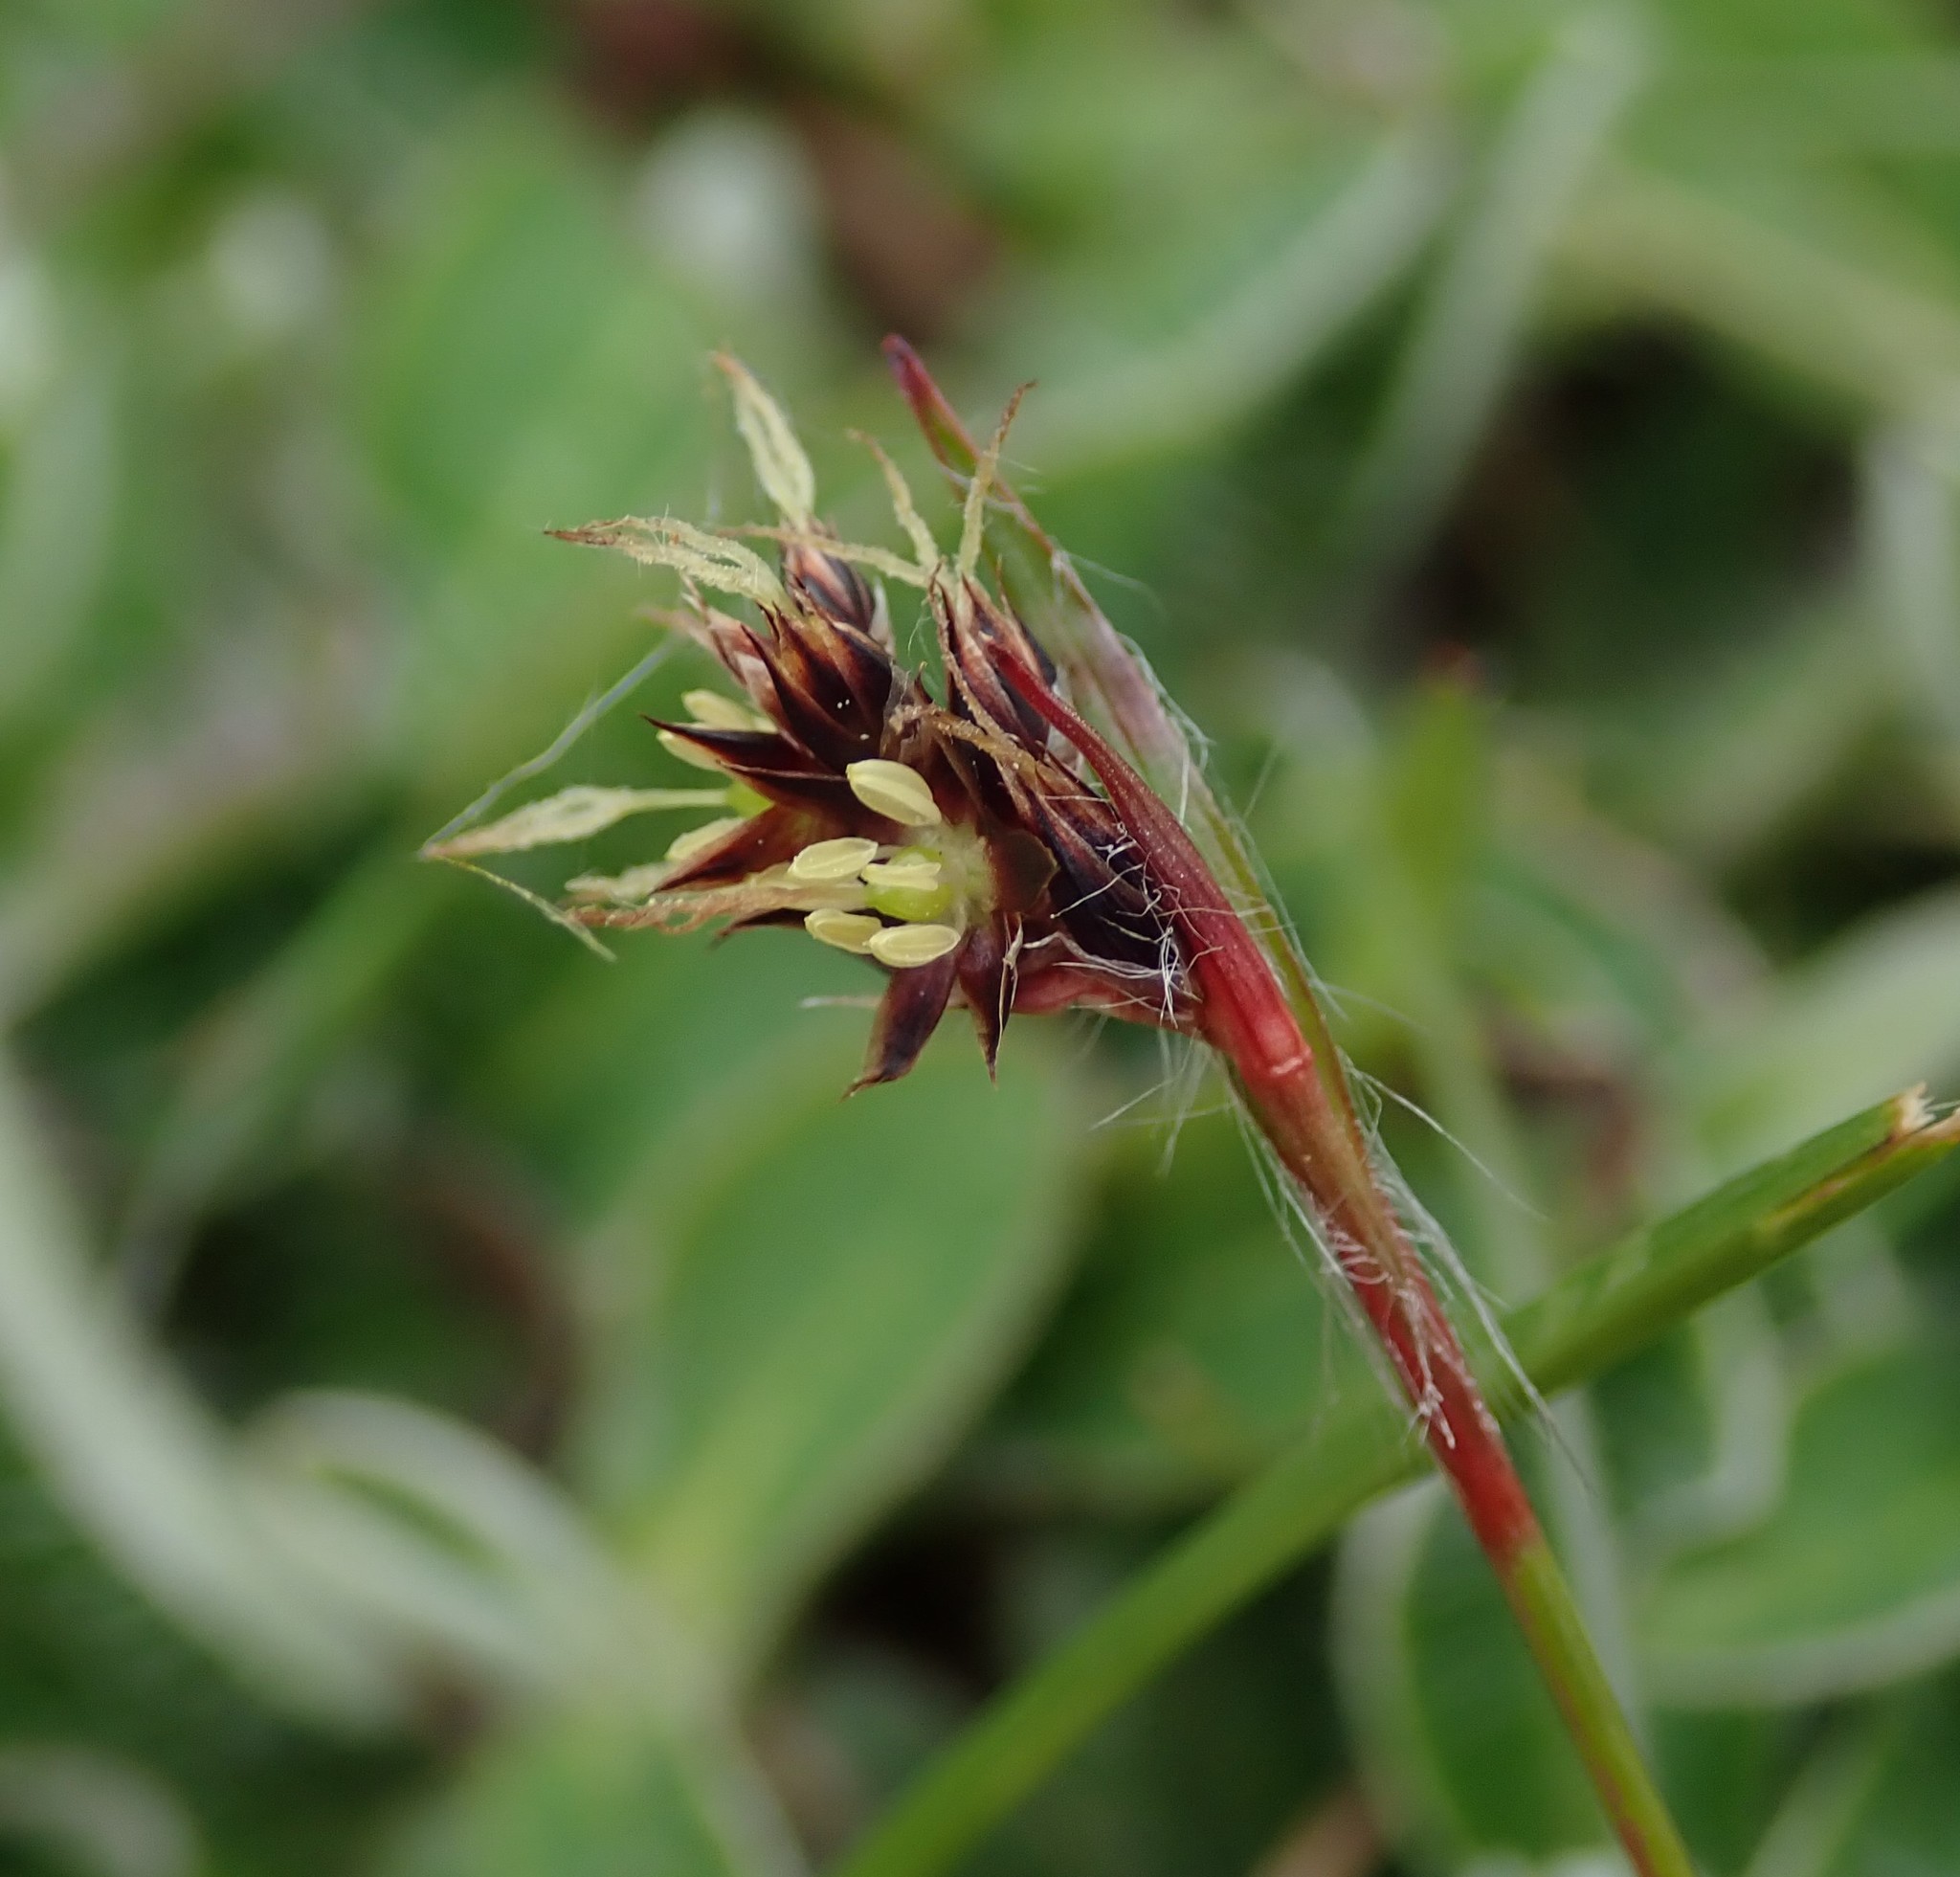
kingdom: Plantae
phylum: Tracheophyta
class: Liliopsida
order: Poales
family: Juncaceae
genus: Luzula
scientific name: Luzula campestris
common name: Field wood-rush
